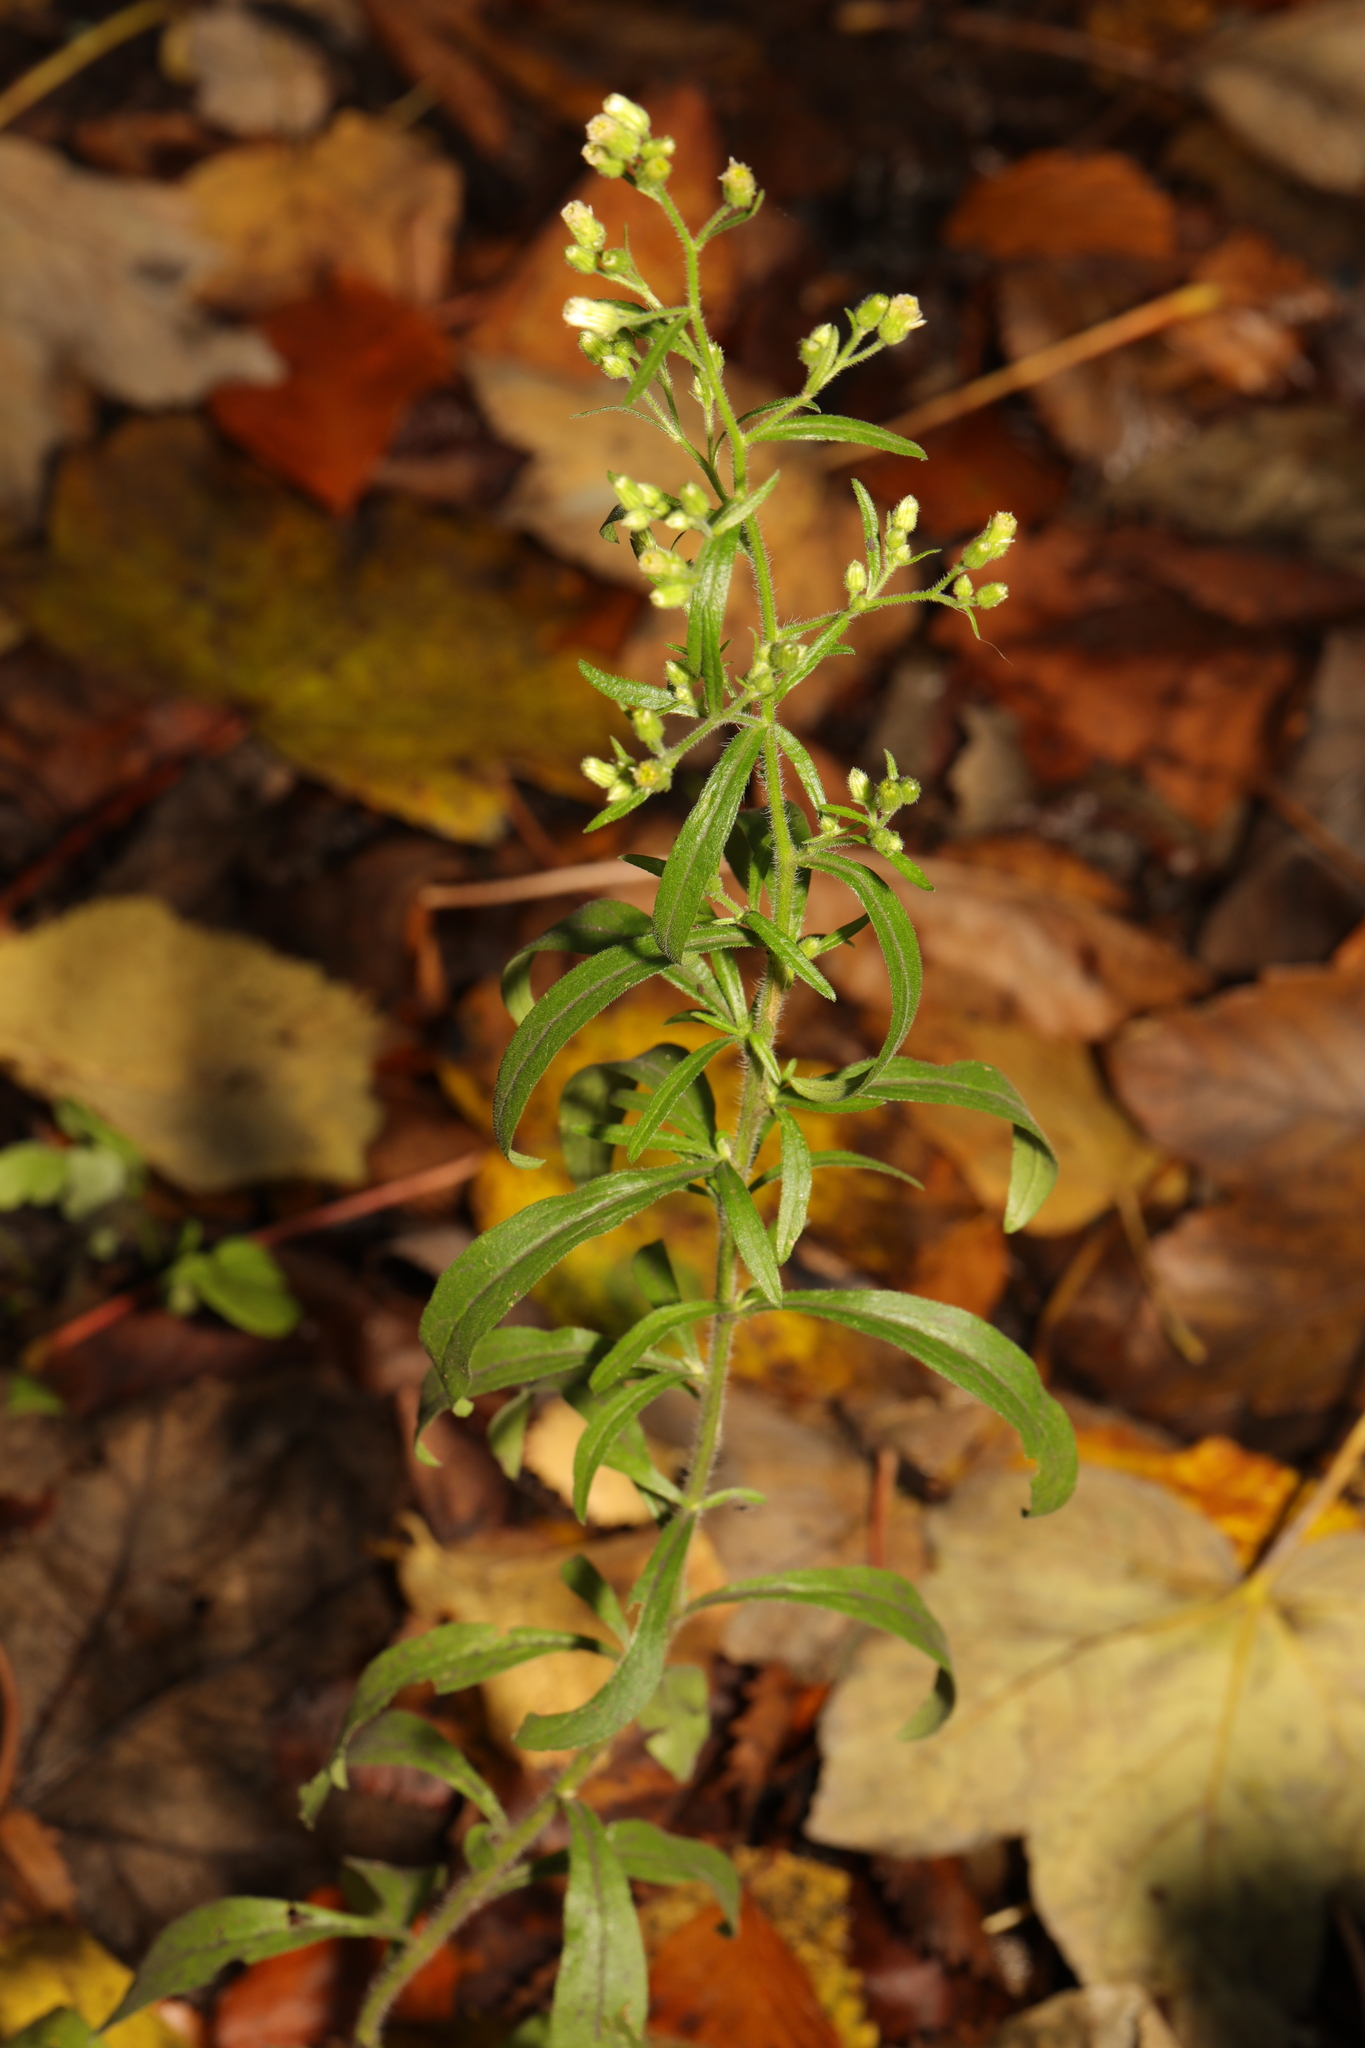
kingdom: Plantae
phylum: Tracheophyta
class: Magnoliopsida
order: Asterales
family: Asteraceae
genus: Erigeron
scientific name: Erigeron canadensis
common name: Canadian fleabane
